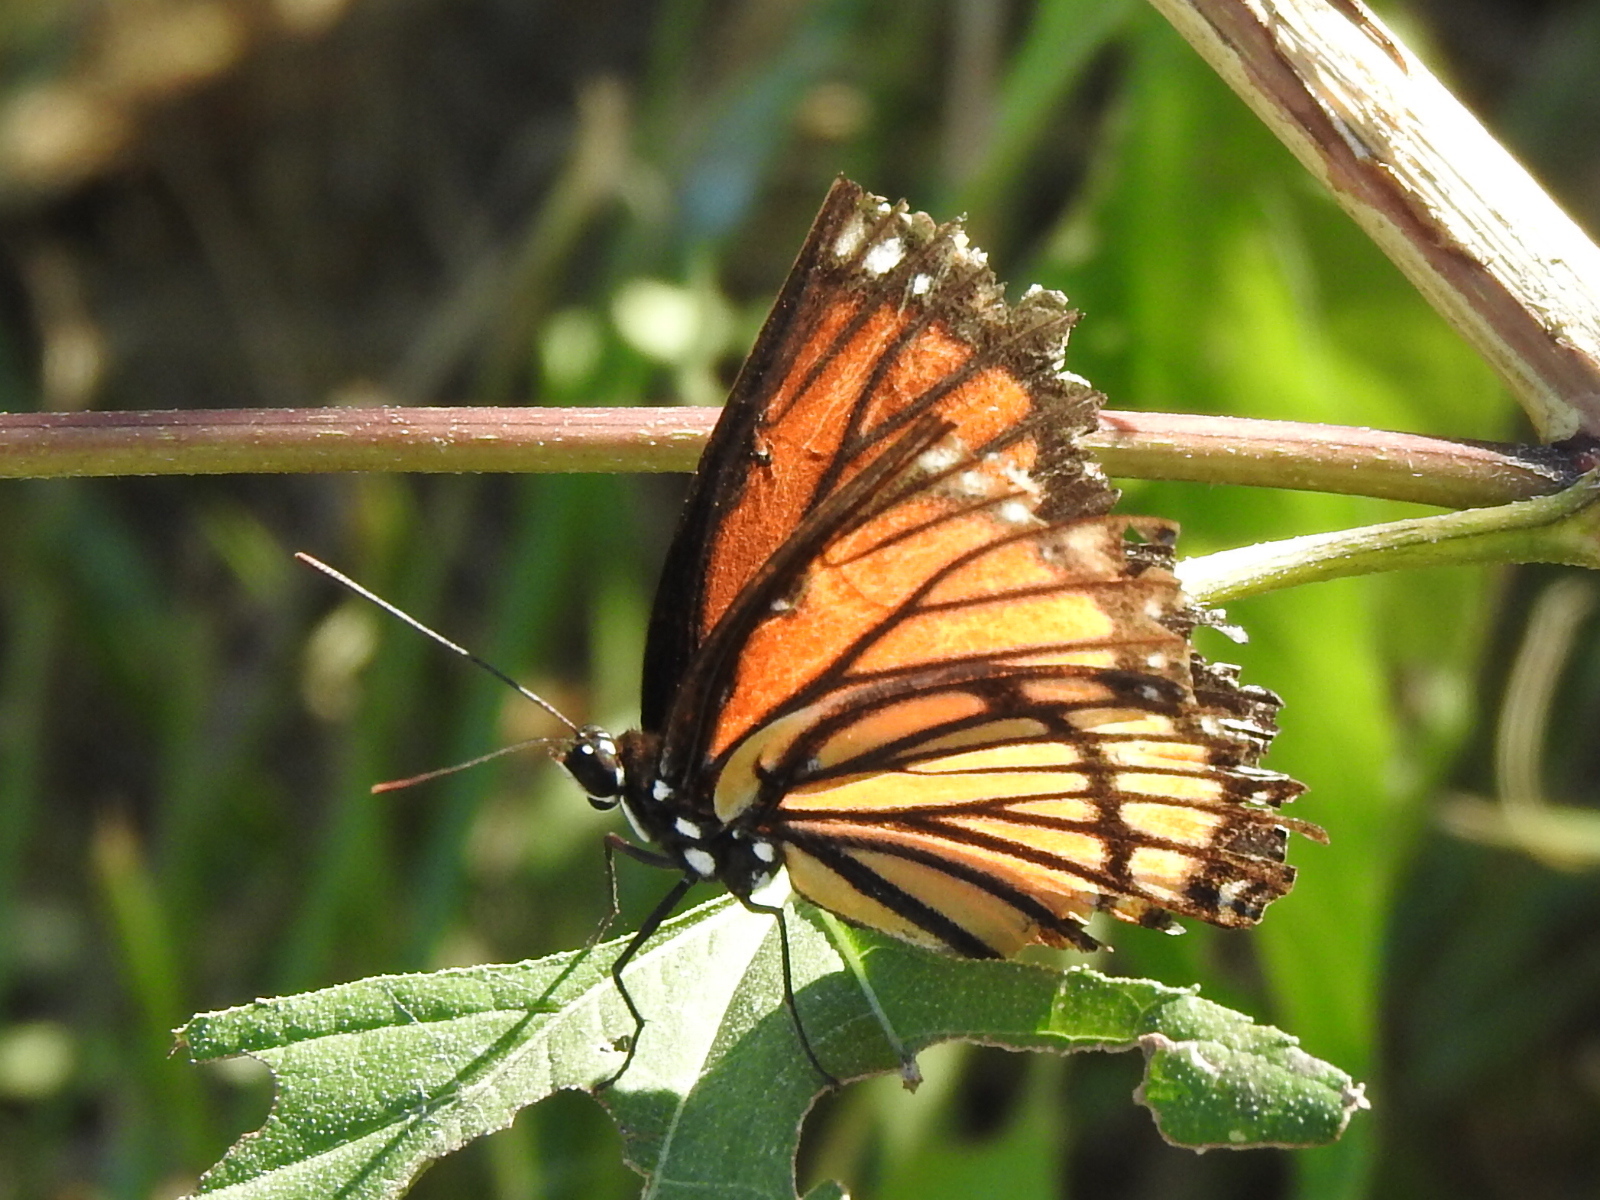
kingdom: Animalia
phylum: Arthropoda
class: Insecta
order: Lepidoptera
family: Nymphalidae
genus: Limenitis
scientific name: Limenitis archippus
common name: Viceroy
